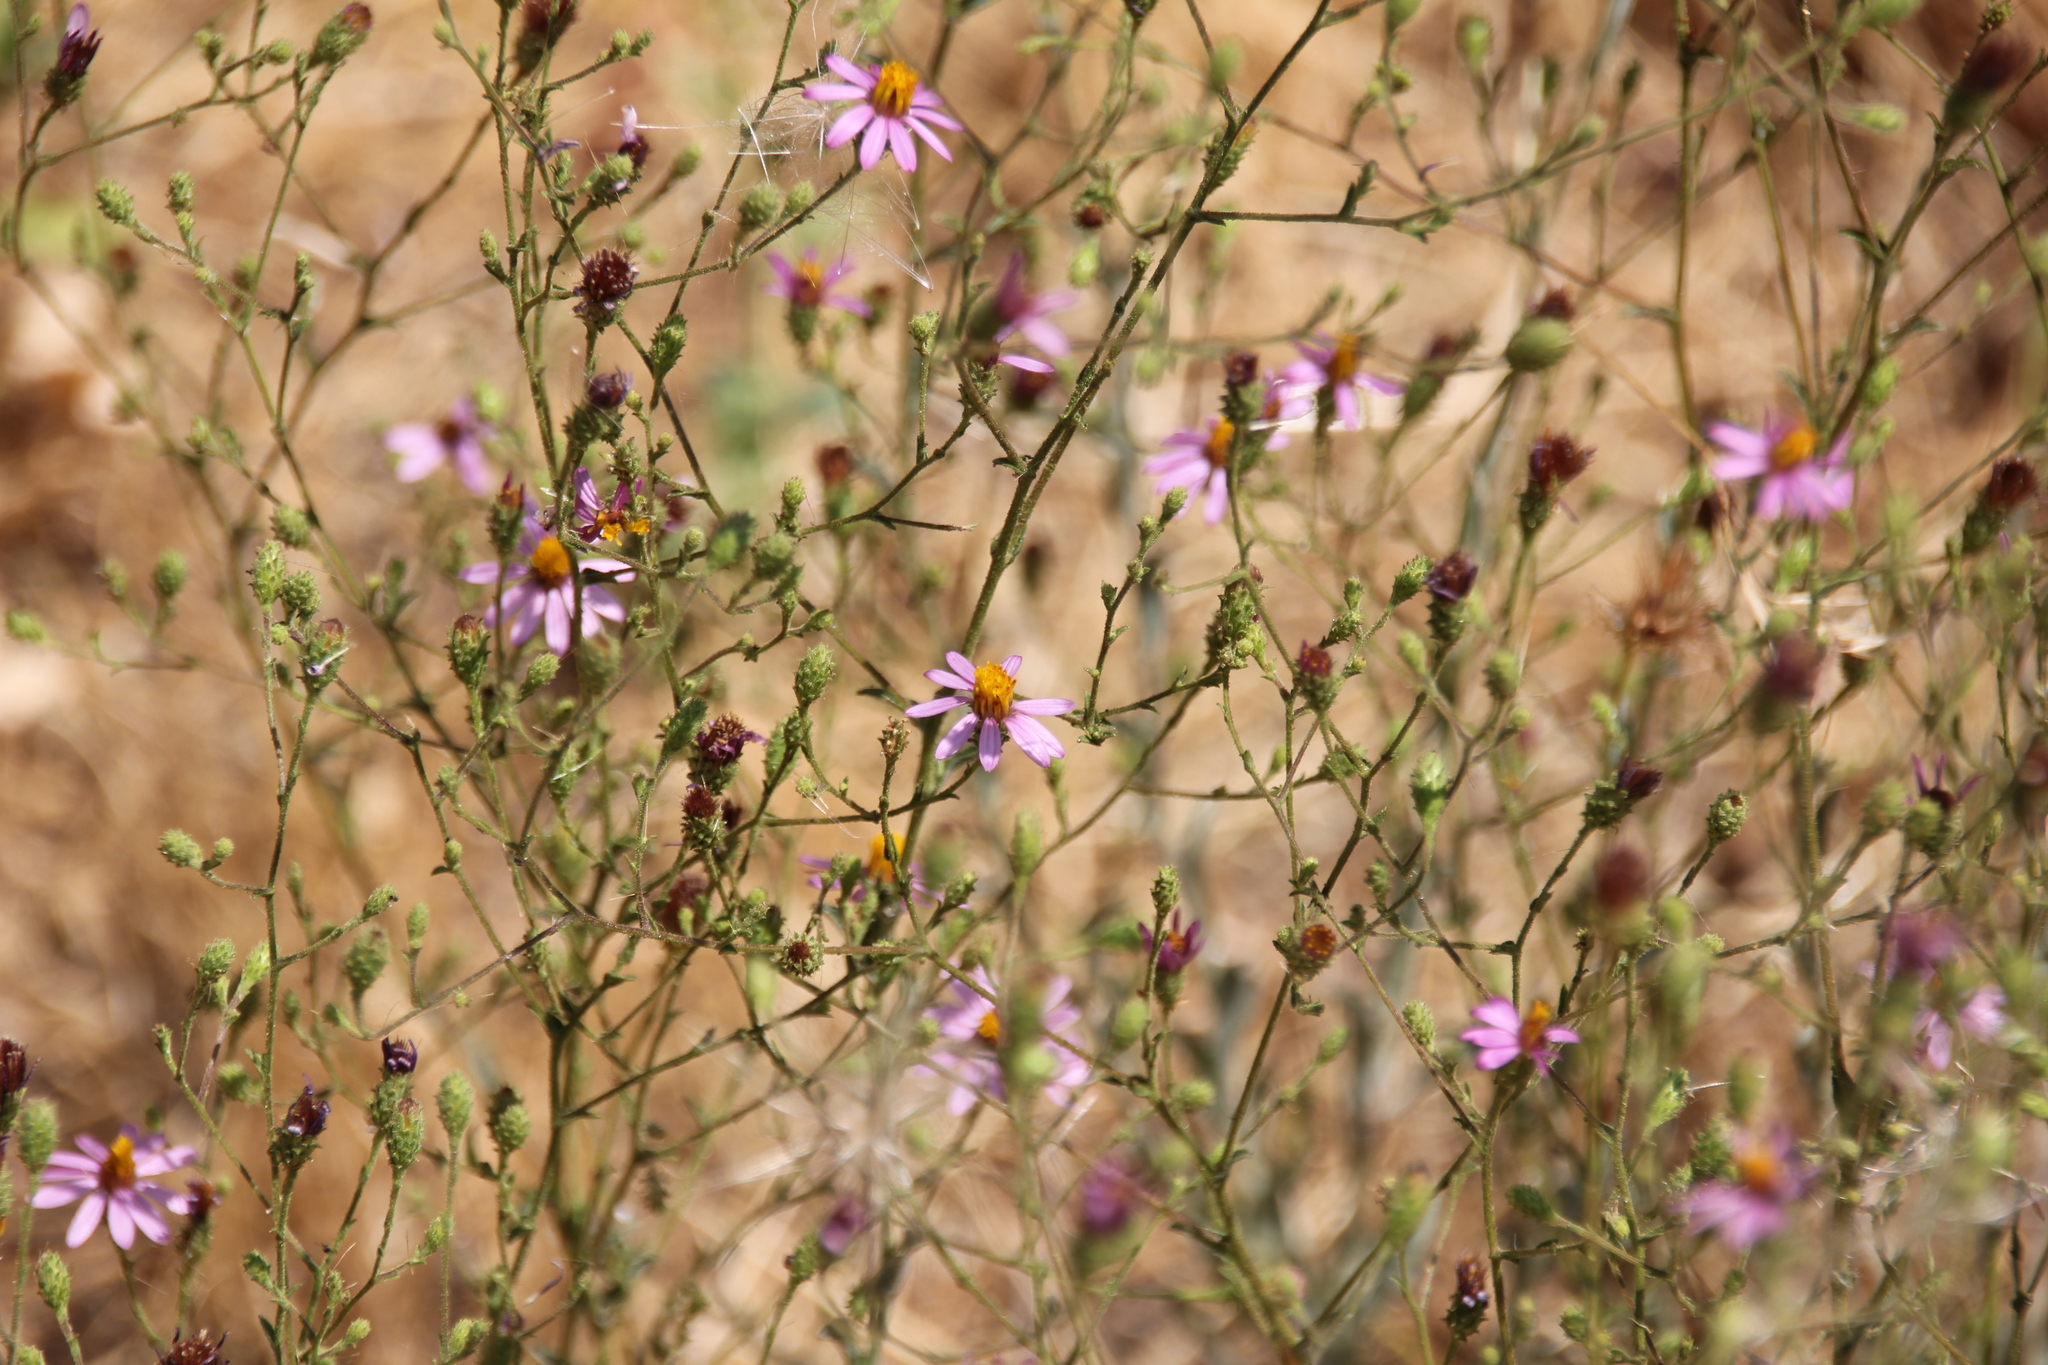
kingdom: Plantae
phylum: Tracheophyta
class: Magnoliopsida
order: Asterales
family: Asteraceae
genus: Corethrogyne
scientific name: Corethrogyne filaginifolia
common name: Sand-aster
